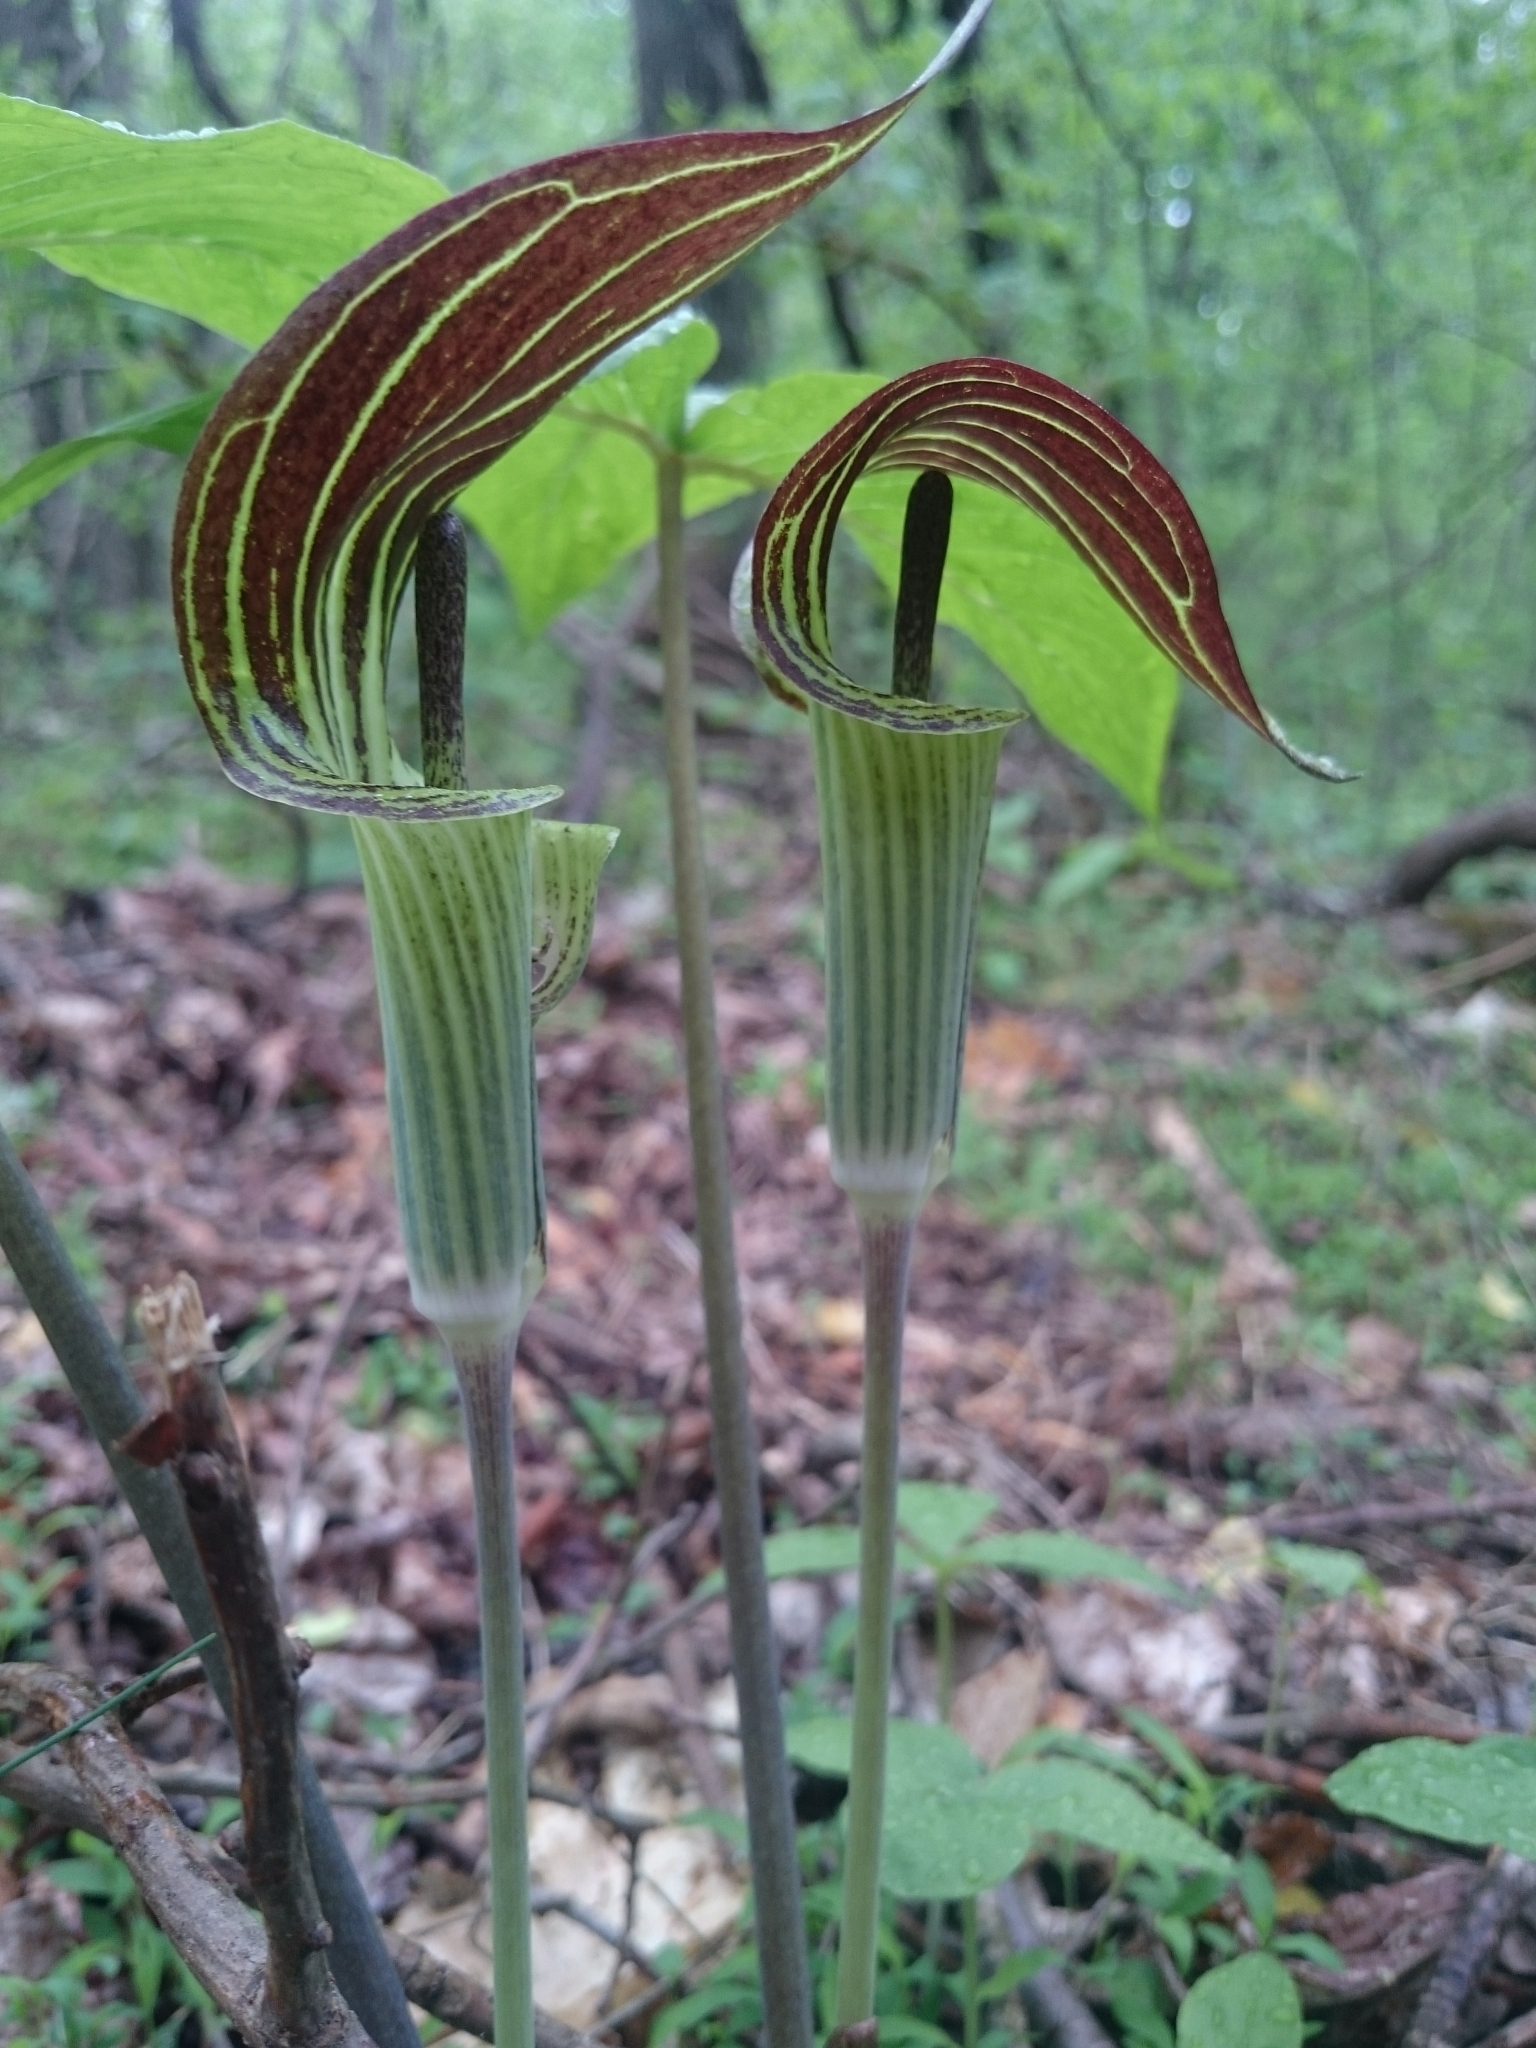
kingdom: Plantae
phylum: Tracheophyta
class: Liliopsida
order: Alismatales
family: Araceae
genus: Arisaema
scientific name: Arisaema triphyllum
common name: Jack-in-the-pulpit
